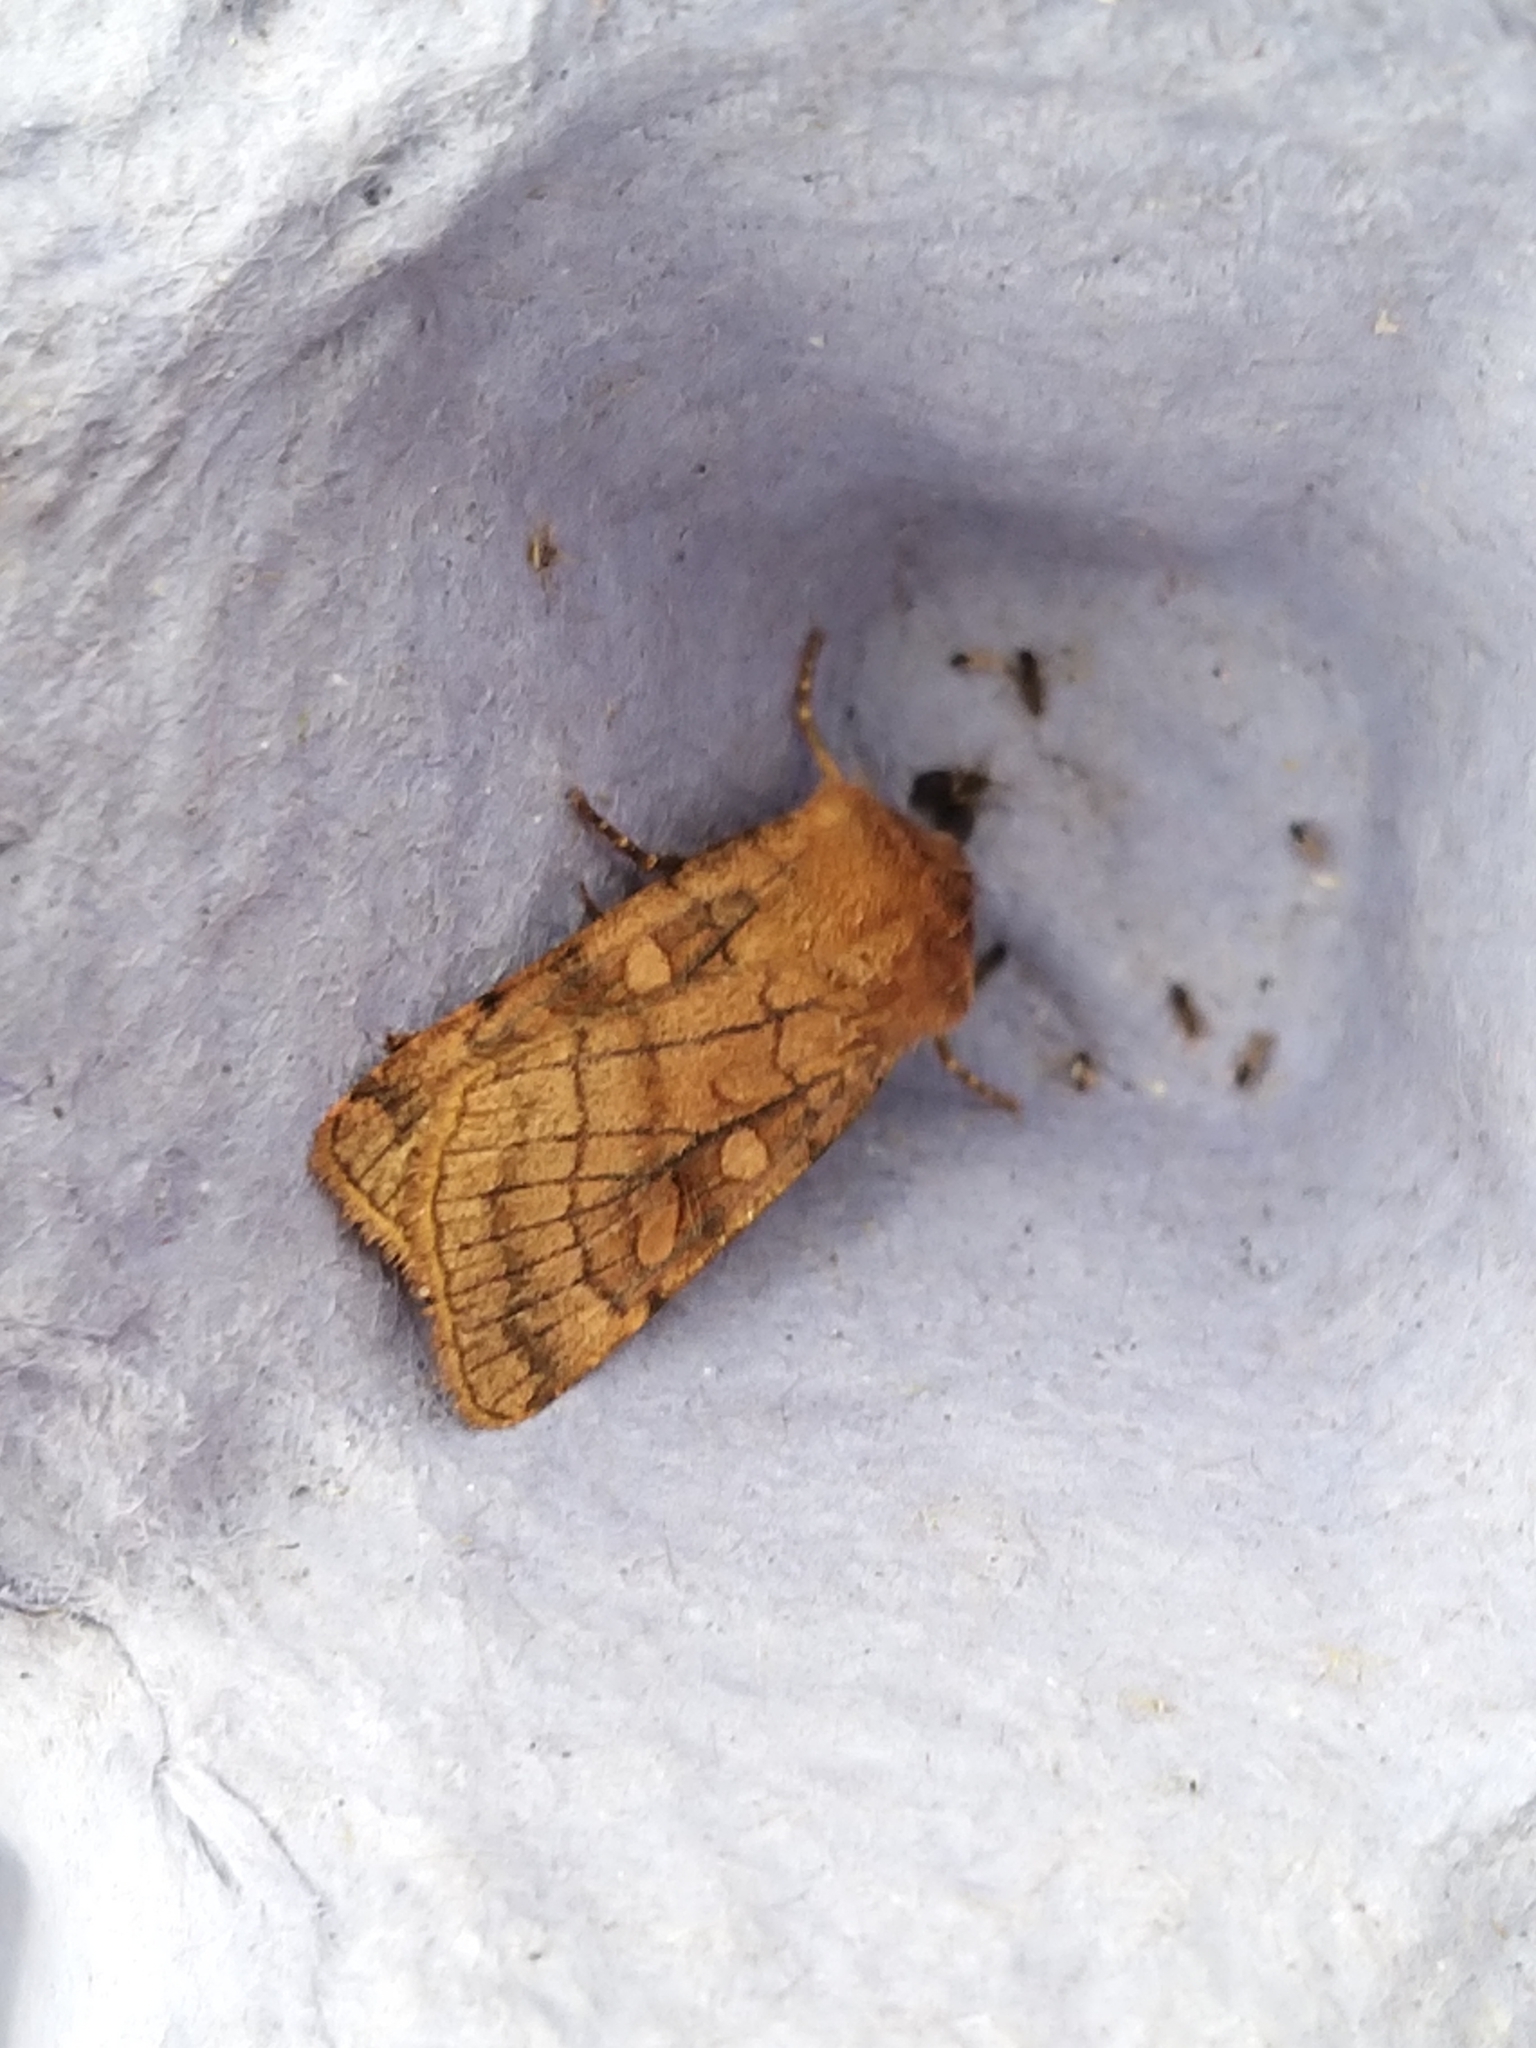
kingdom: Animalia
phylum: Arthropoda
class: Insecta
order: Lepidoptera
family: Noctuidae
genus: Xestia
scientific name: Xestia sexstrigata
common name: Six-striped rustic
